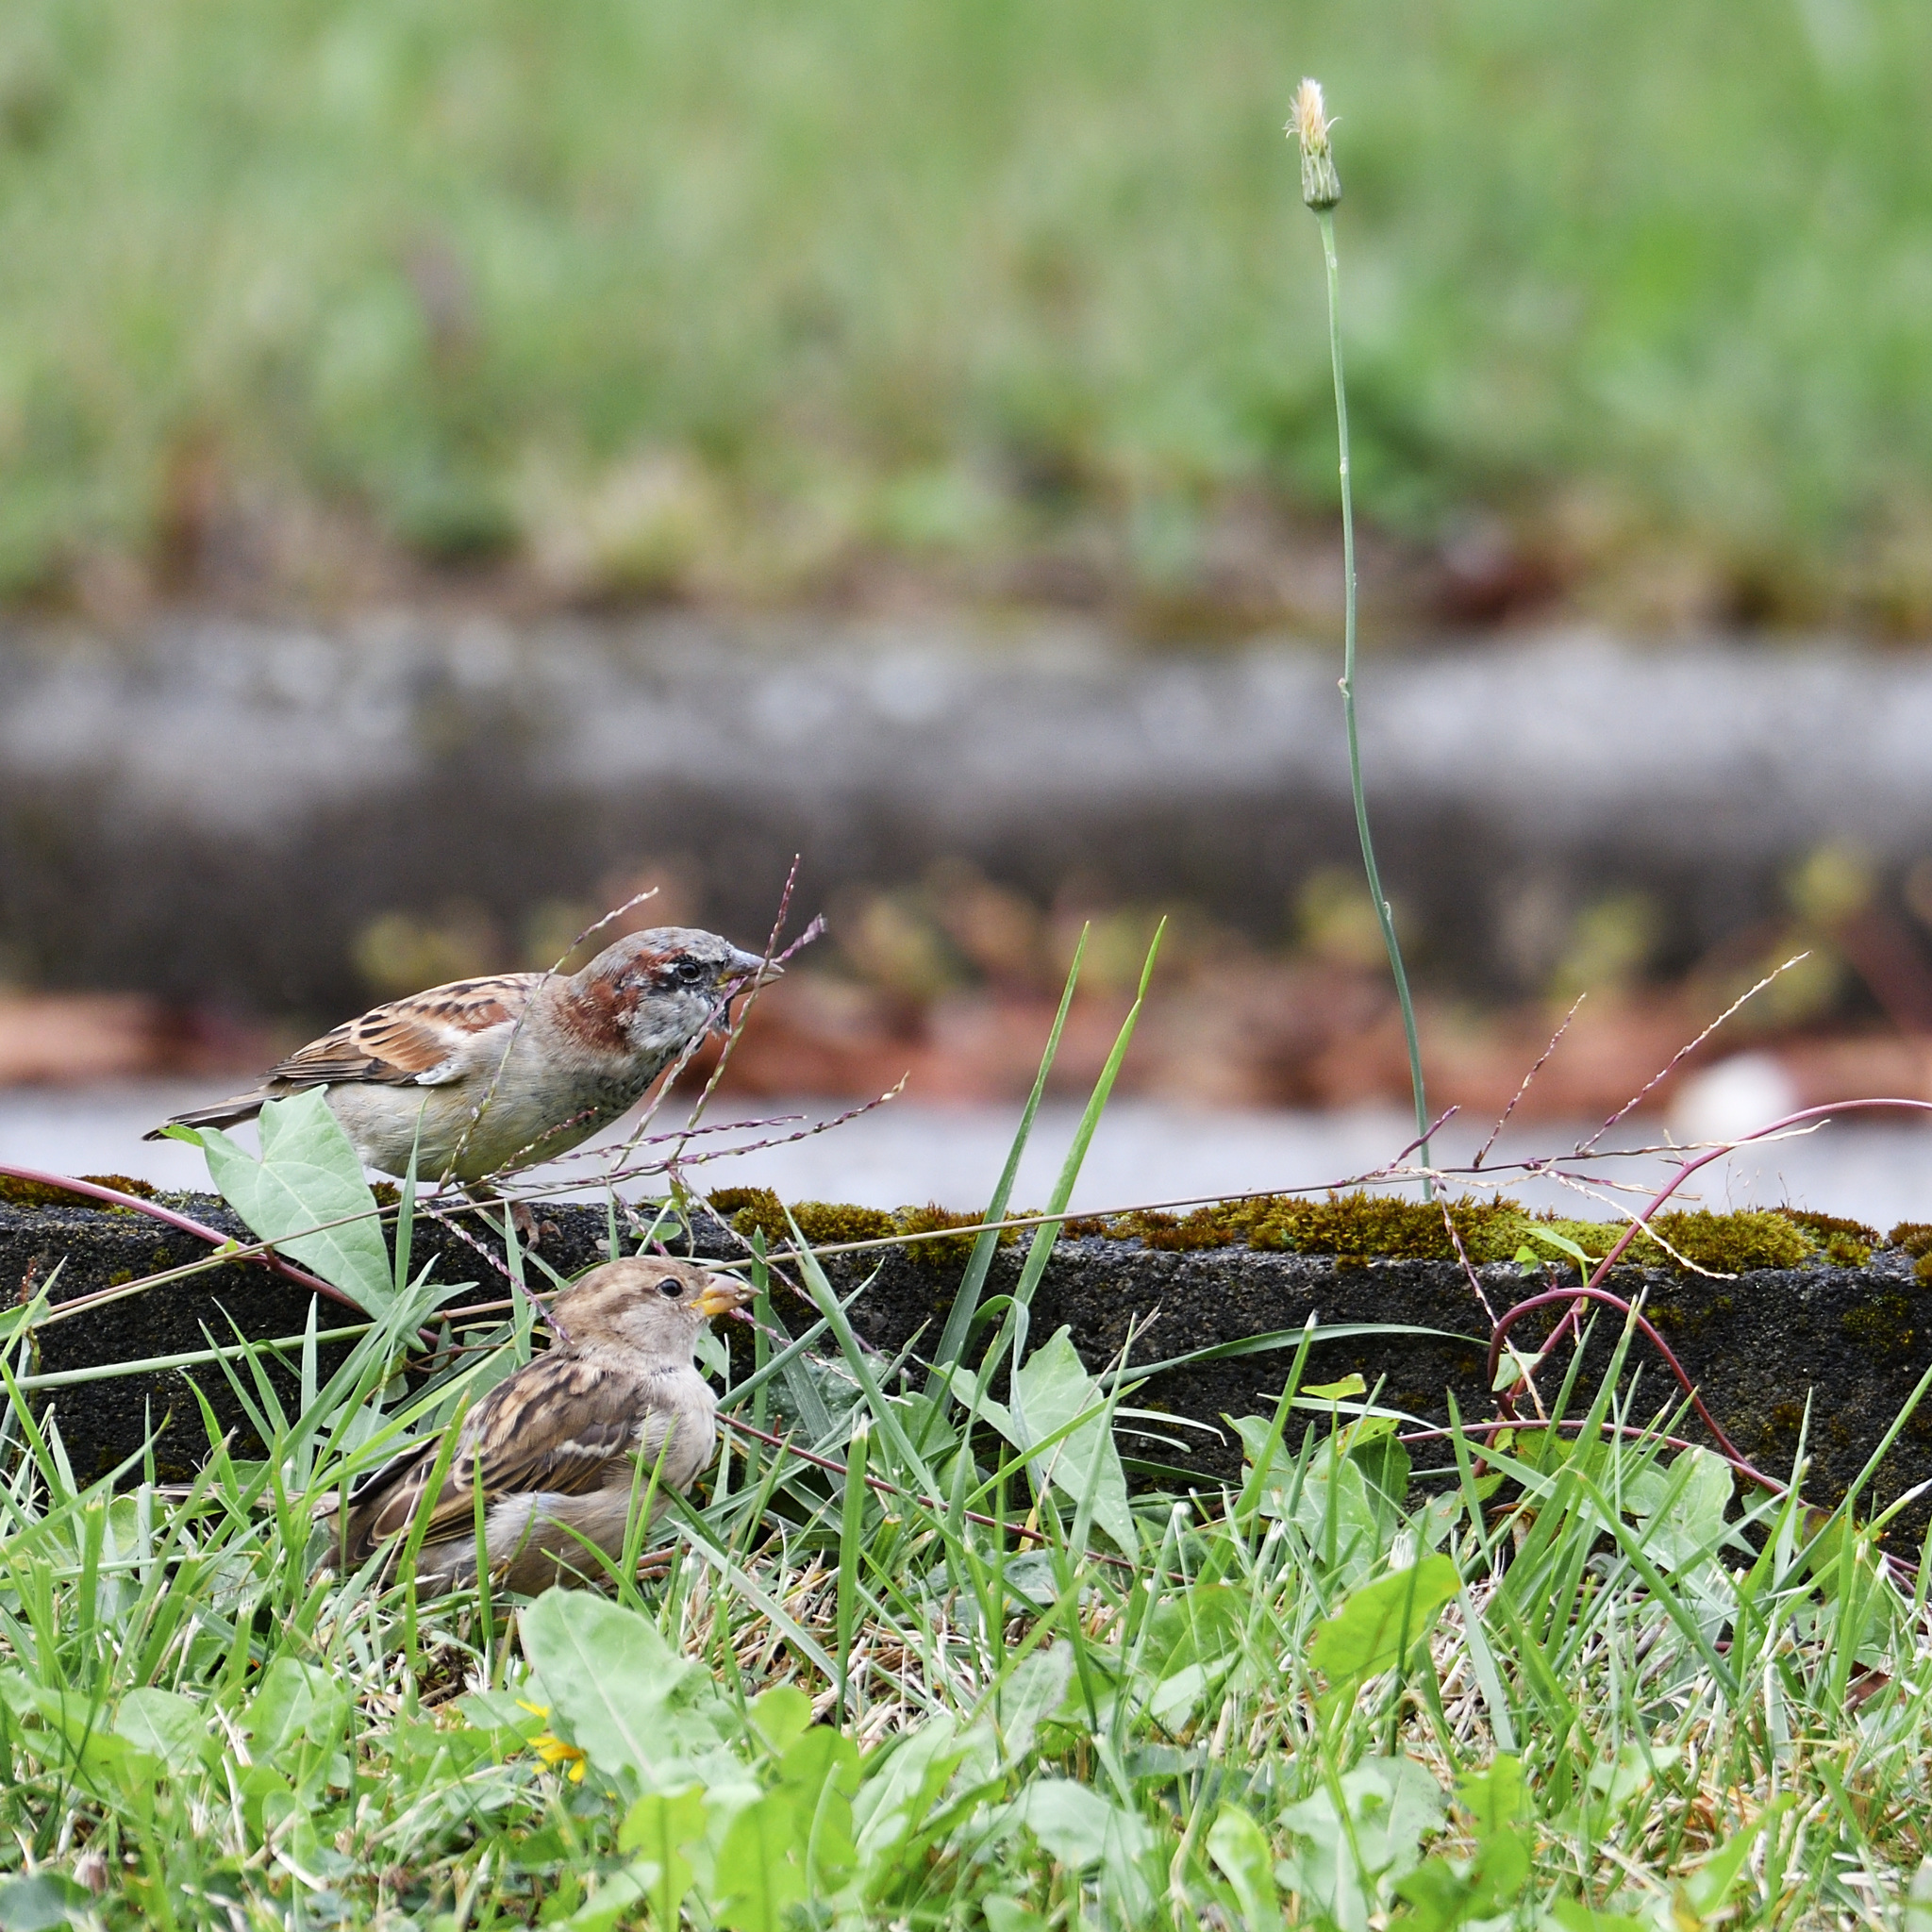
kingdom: Animalia
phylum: Chordata
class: Aves
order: Passeriformes
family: Passeridae
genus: Passer
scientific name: Passer domesticus
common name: House sparrow
